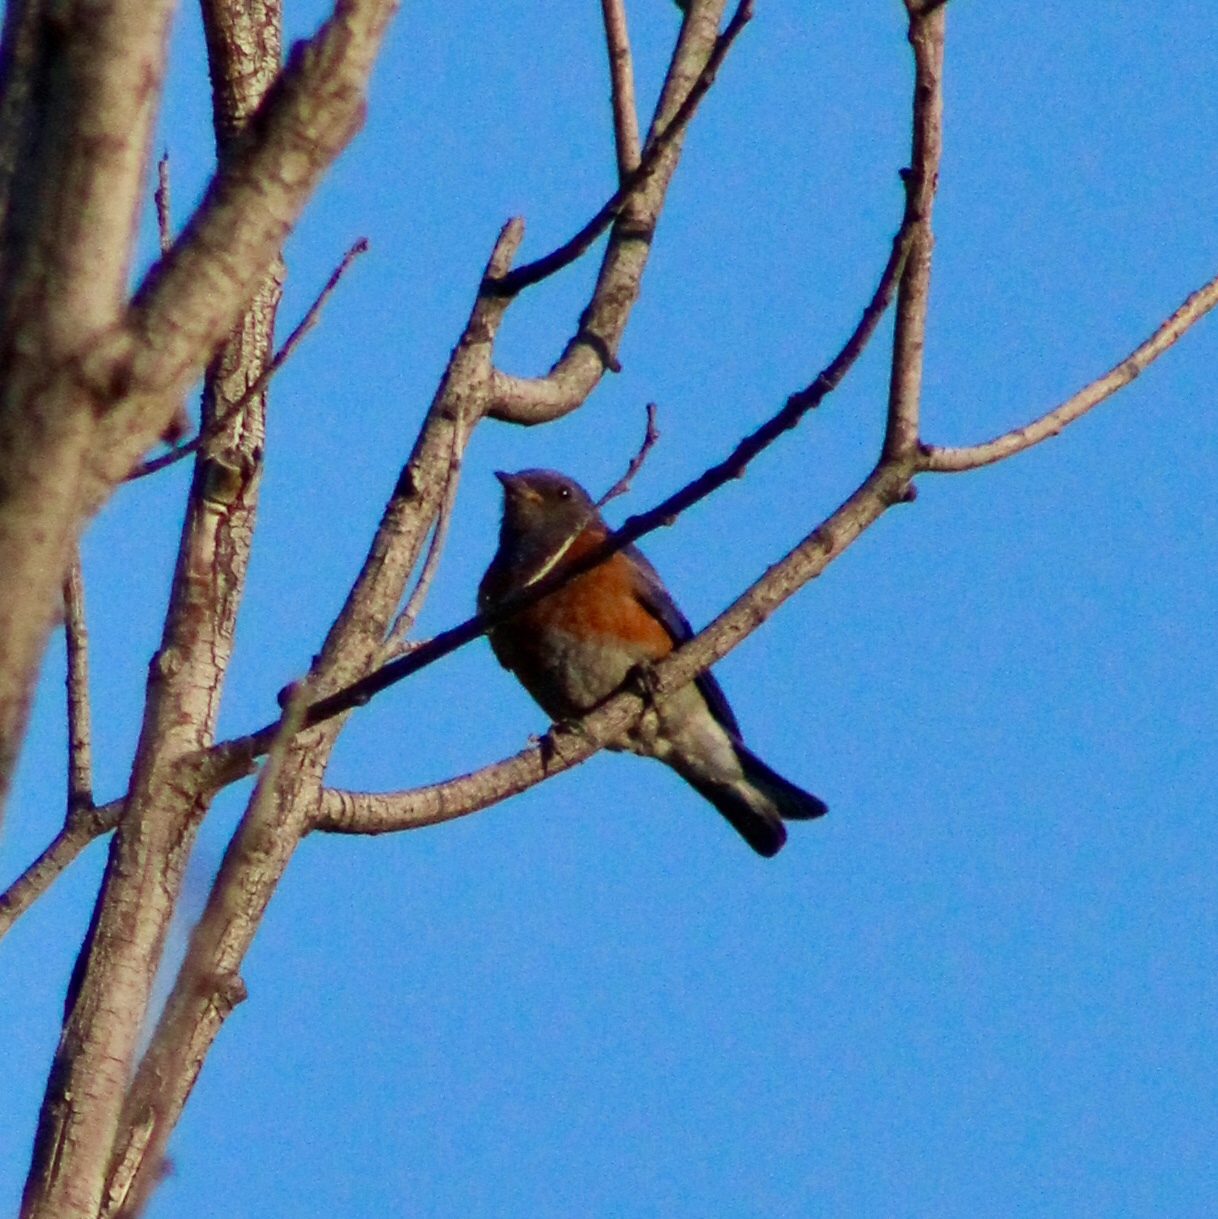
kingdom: Animalia
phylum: Chordata
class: Aves
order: Passeriformes
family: Turdidae
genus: Sialia
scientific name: Sialia mexicana
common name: Western bluebird
